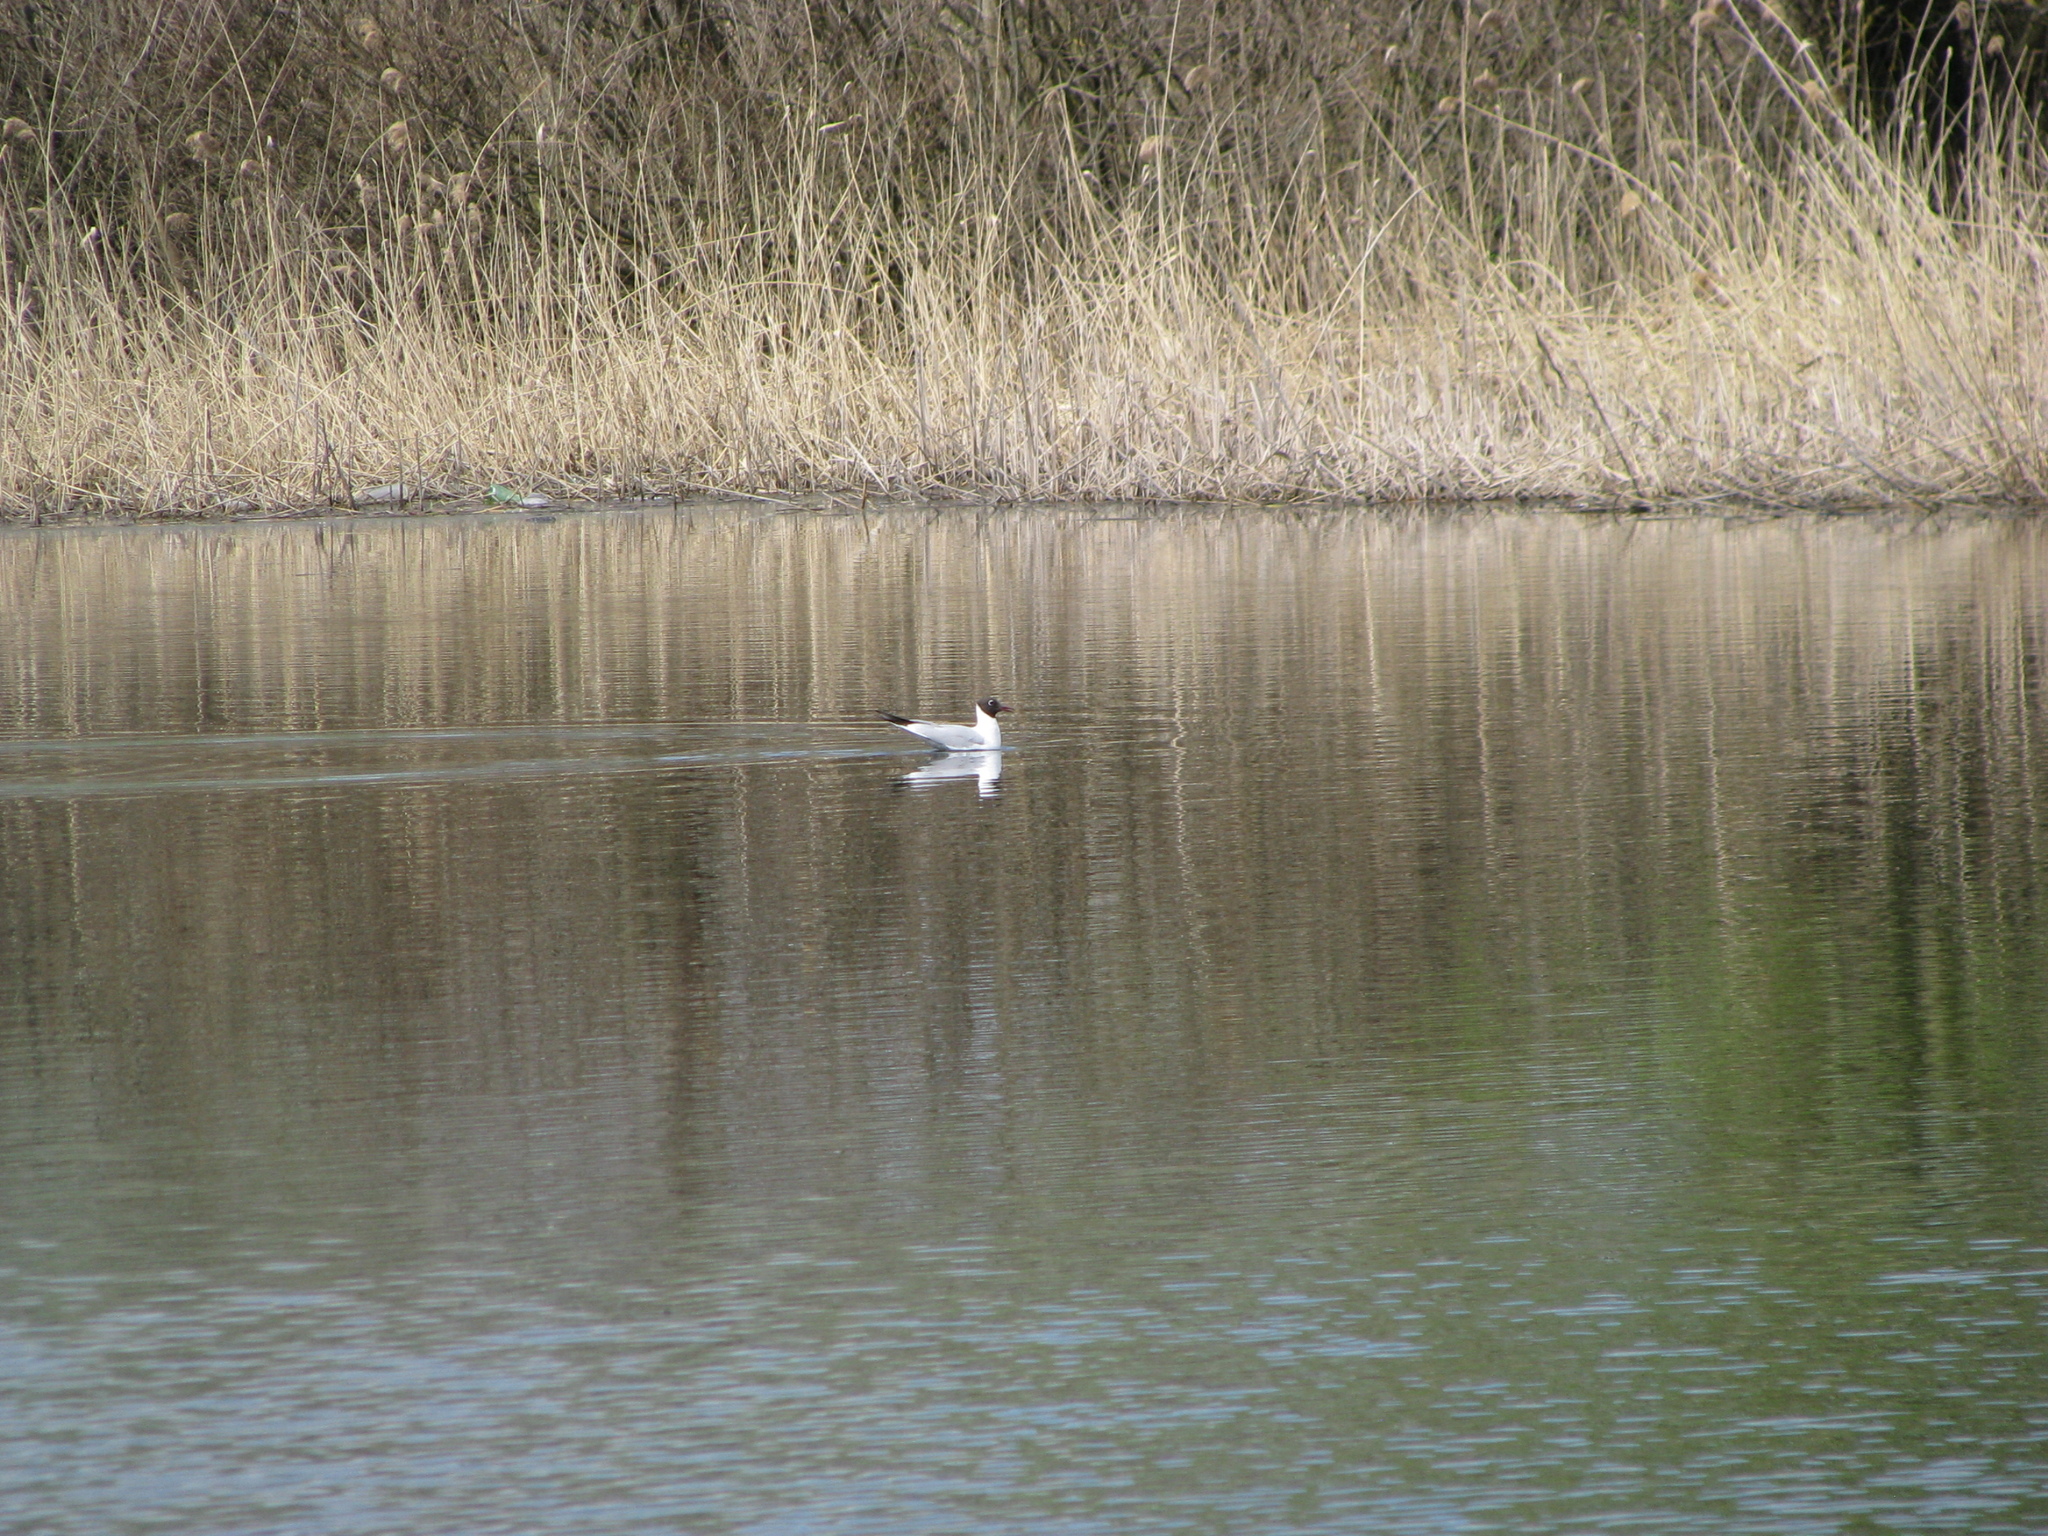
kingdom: Animalia
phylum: Chordata
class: Aves
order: Charadriiformes
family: Laridae
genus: Chroicocephalus
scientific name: Chroicocephalus ridibundus
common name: Black-headed gull
